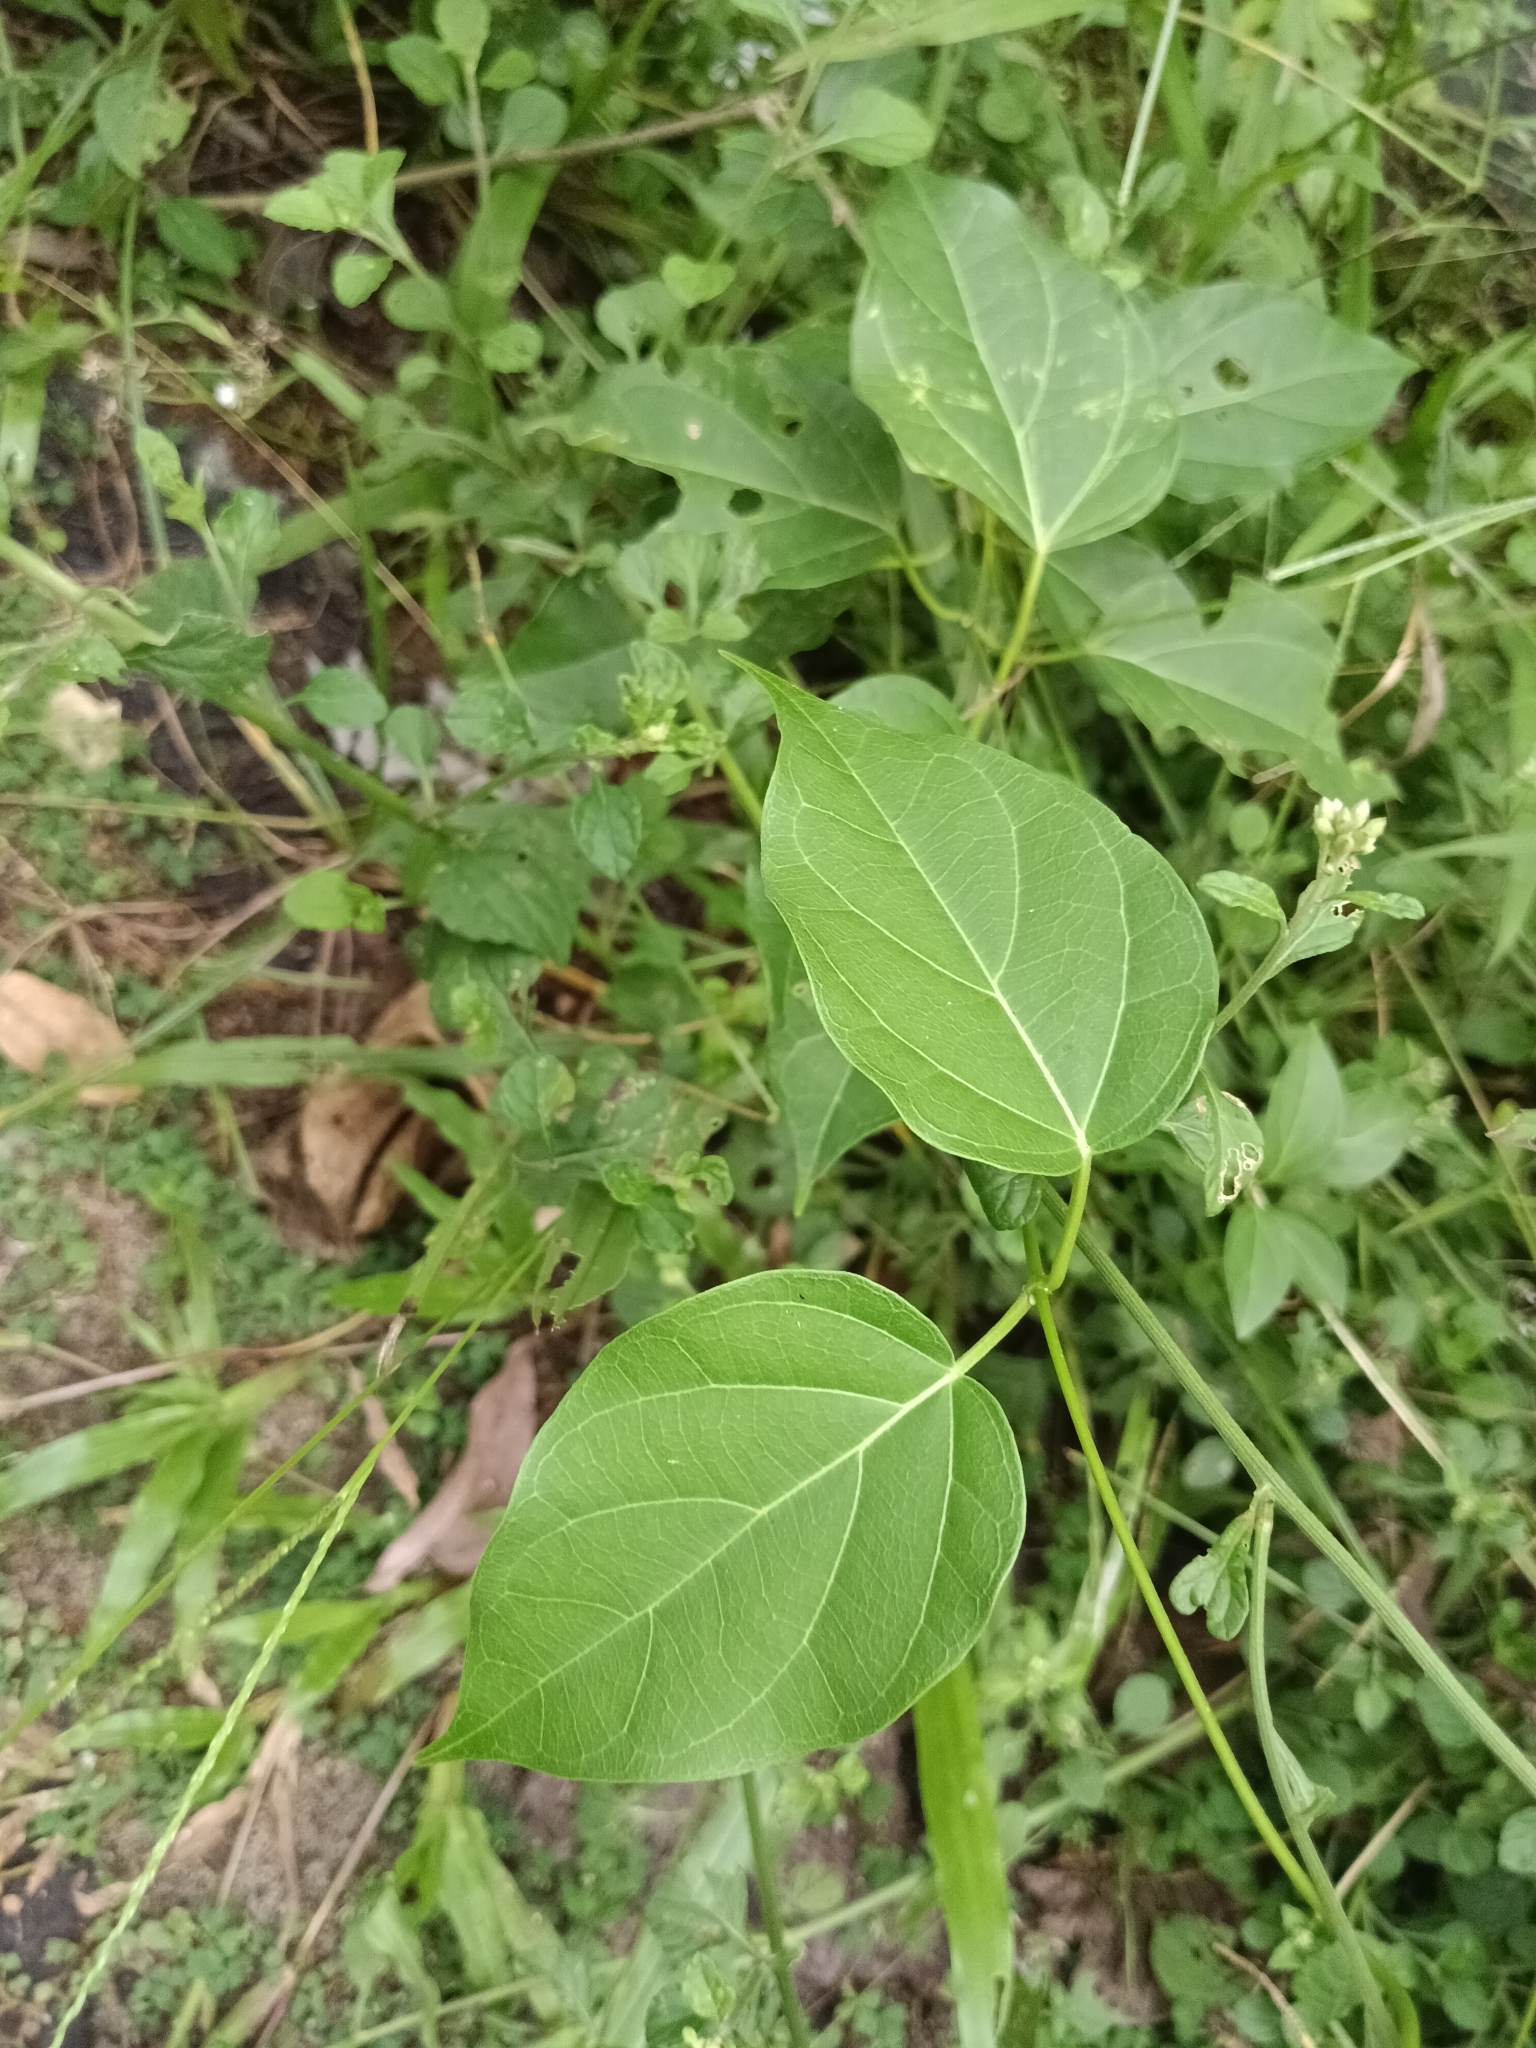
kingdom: Plantae
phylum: Tracheophyta
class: Magnoliopsida
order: Gentianales
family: Apocynaceae
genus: Stephanotis
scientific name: Stephanotis volubilis
